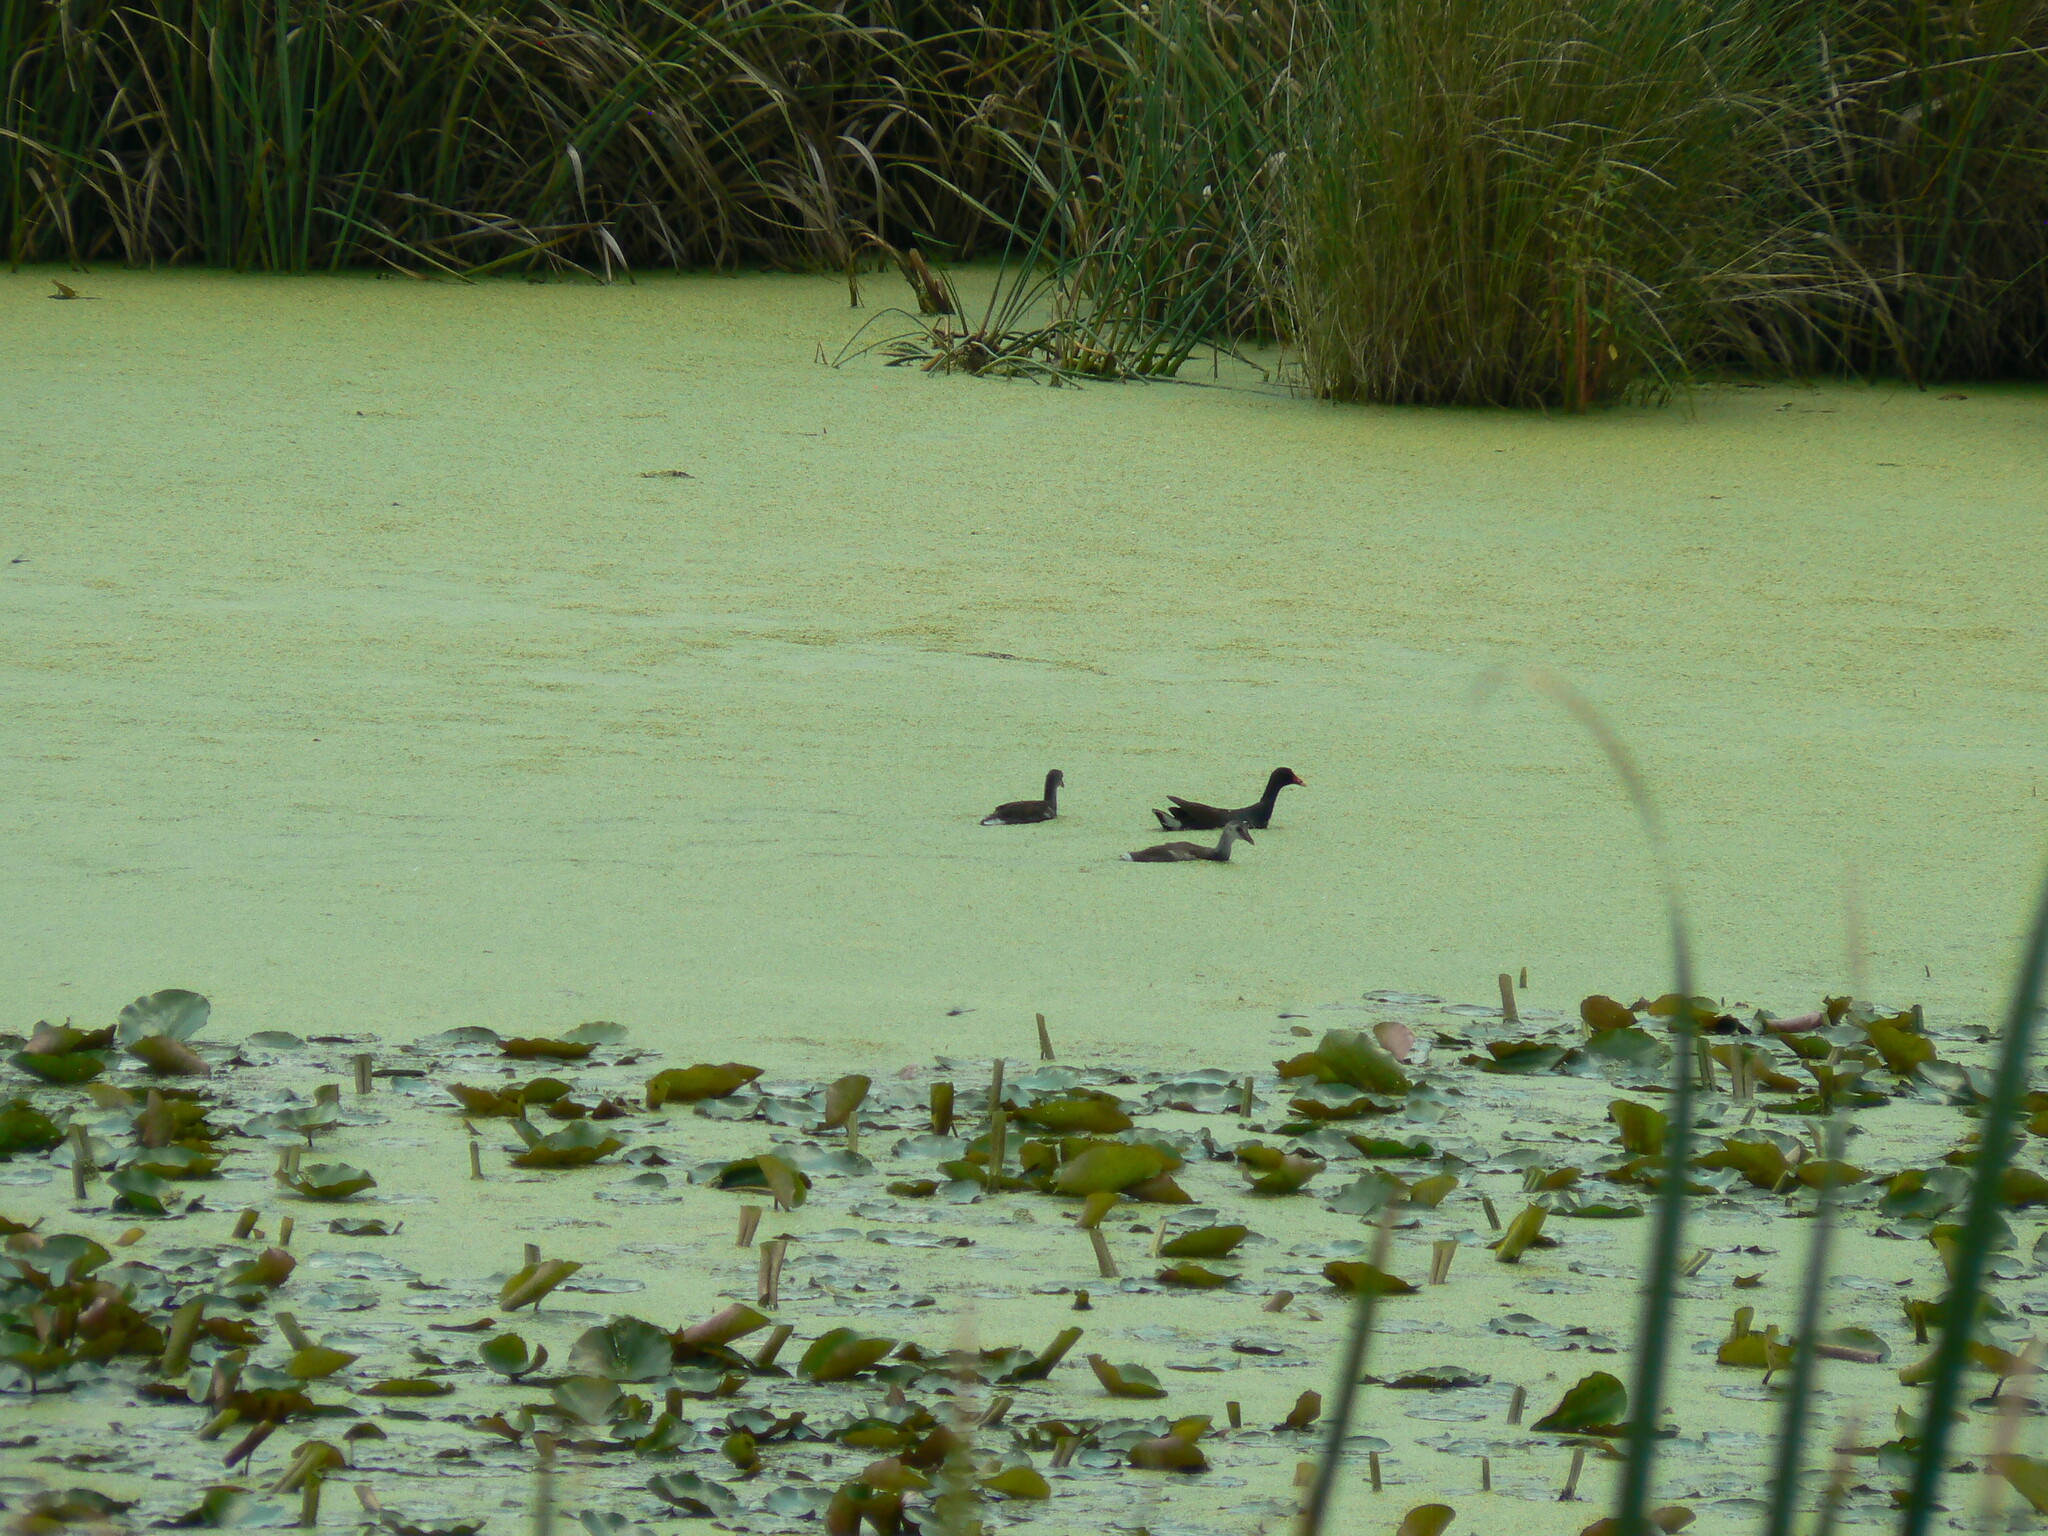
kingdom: Animalia
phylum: Chordata
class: Aves
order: Gruiformes
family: Rallidae
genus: Gallinula
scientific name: Gallinula chloropus
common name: Common moorhen
